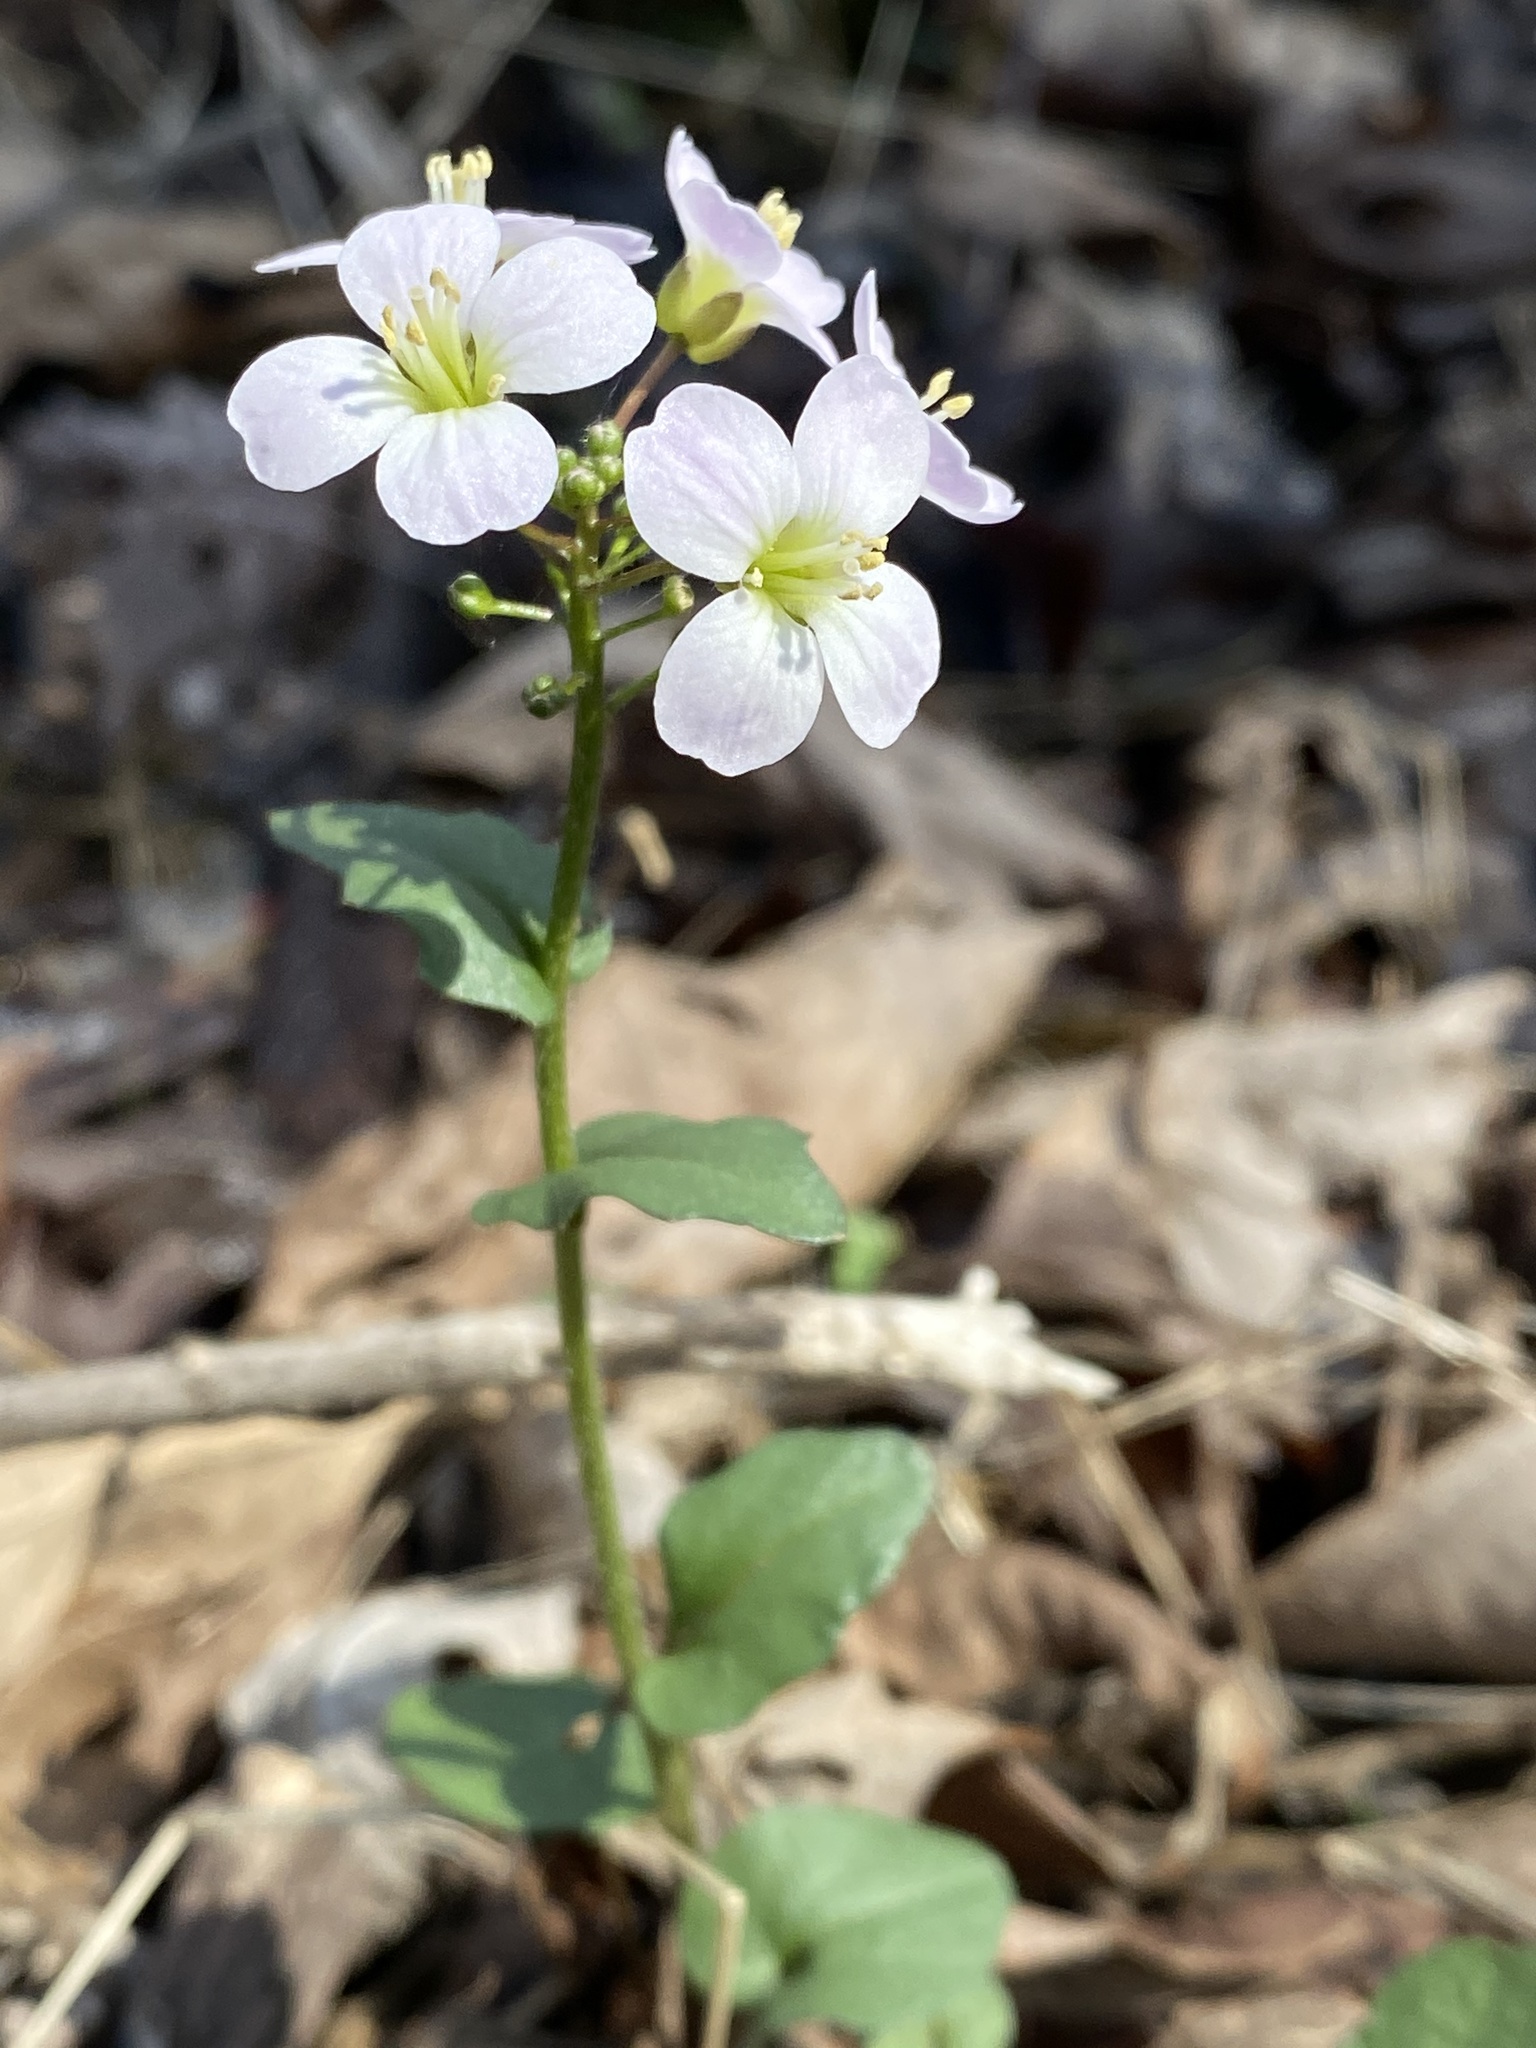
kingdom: Plantae
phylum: Tracheophyta
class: Magnoliopsida
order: Brassicales
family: Brassicaceae
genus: Cardamine
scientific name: Cardamine douglassii
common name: Purple cress
